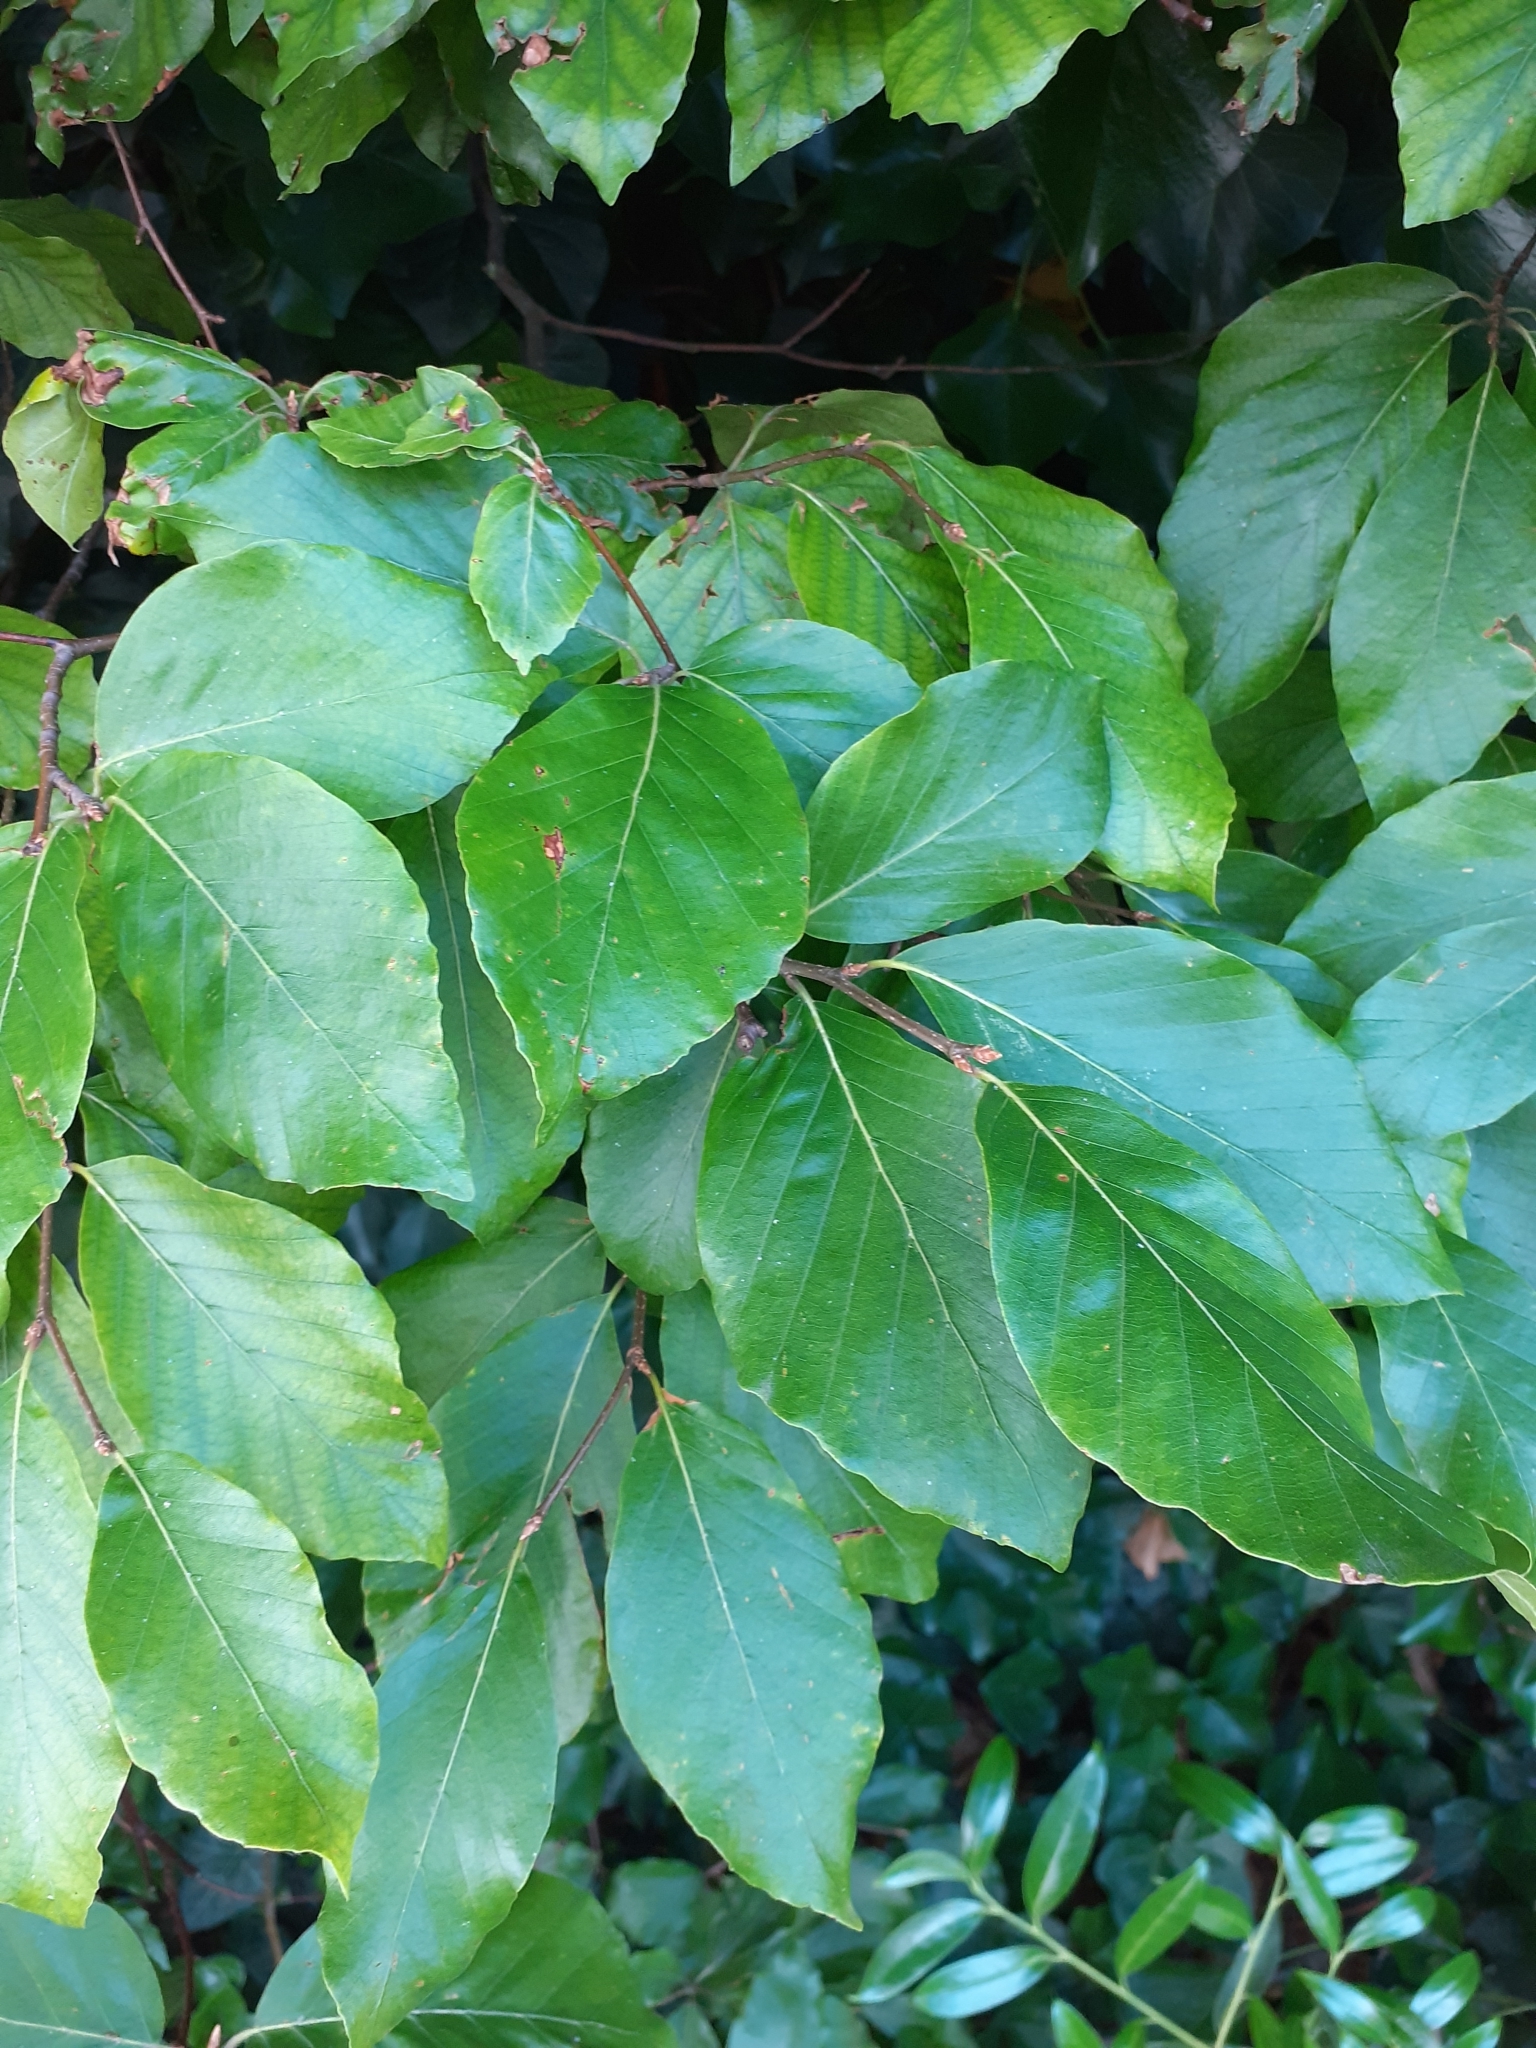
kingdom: Plantae
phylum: Tracheophyta
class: Magnoliopsida
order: Fagales
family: Fagaceae
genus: Fagus
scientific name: Fagus sylvatica
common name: Beech
